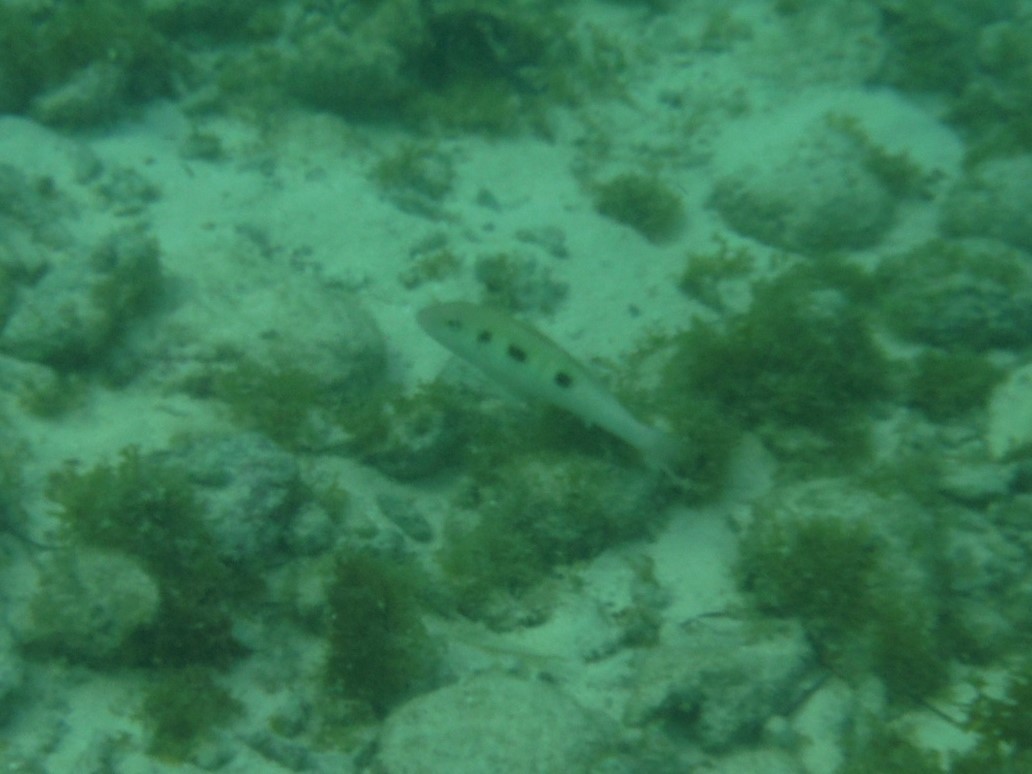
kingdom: Animalia
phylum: Chordata
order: Perciformes
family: Mullidae
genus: Pseudupeneus
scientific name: Pseudupeneus maculatus
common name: Spotted goatfish
